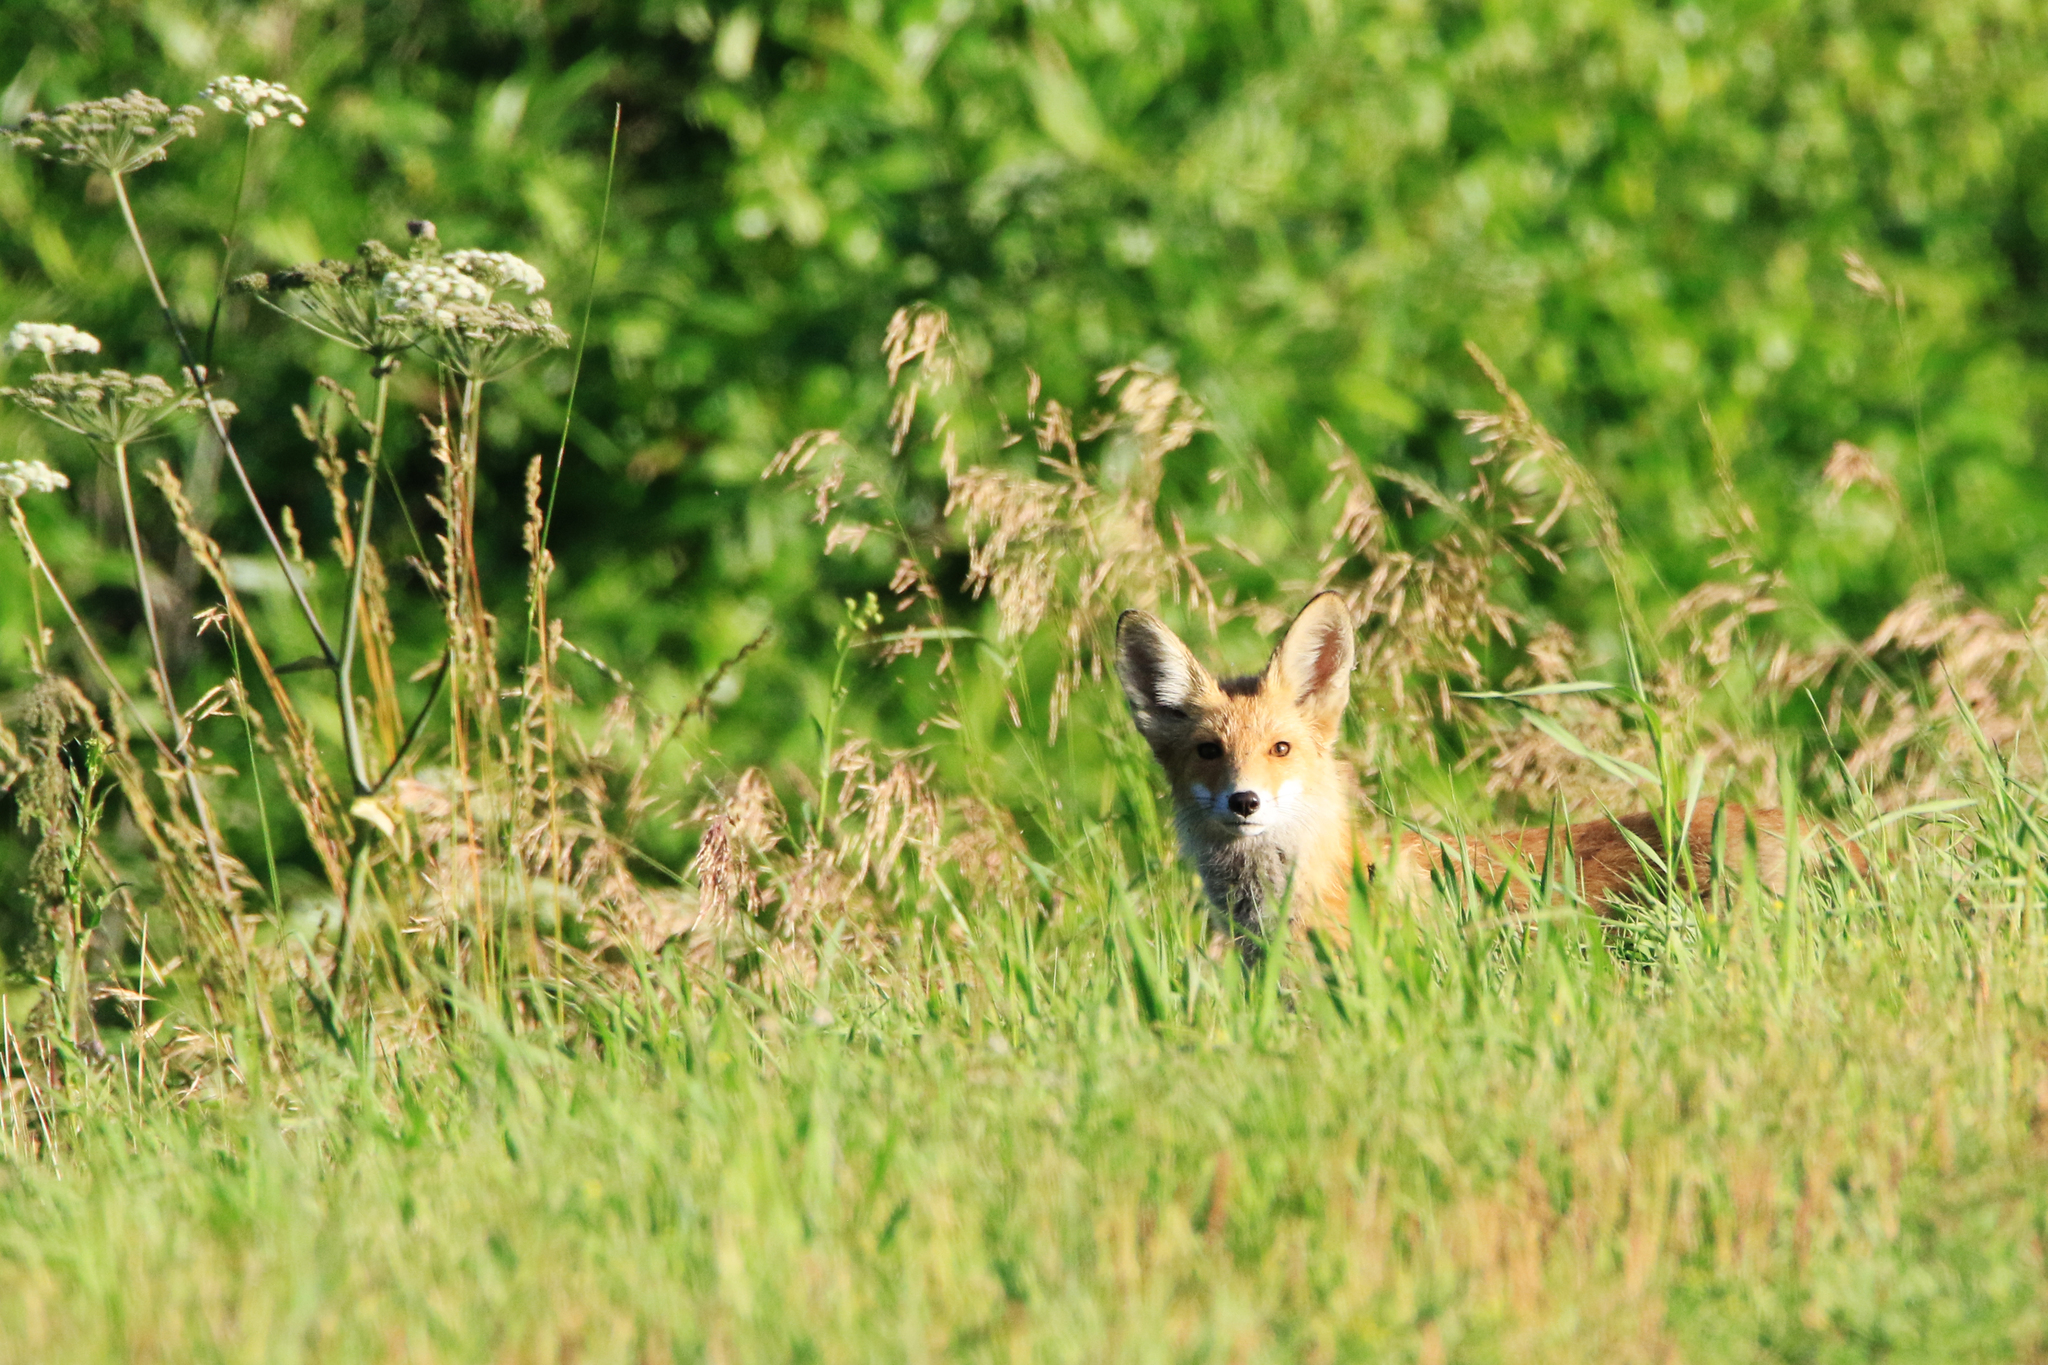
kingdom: Animalia
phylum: Chordata
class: Mammalia
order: Carnivora
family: Canidae
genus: Vulpes
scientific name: Vulpes vulpes
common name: Red fox
